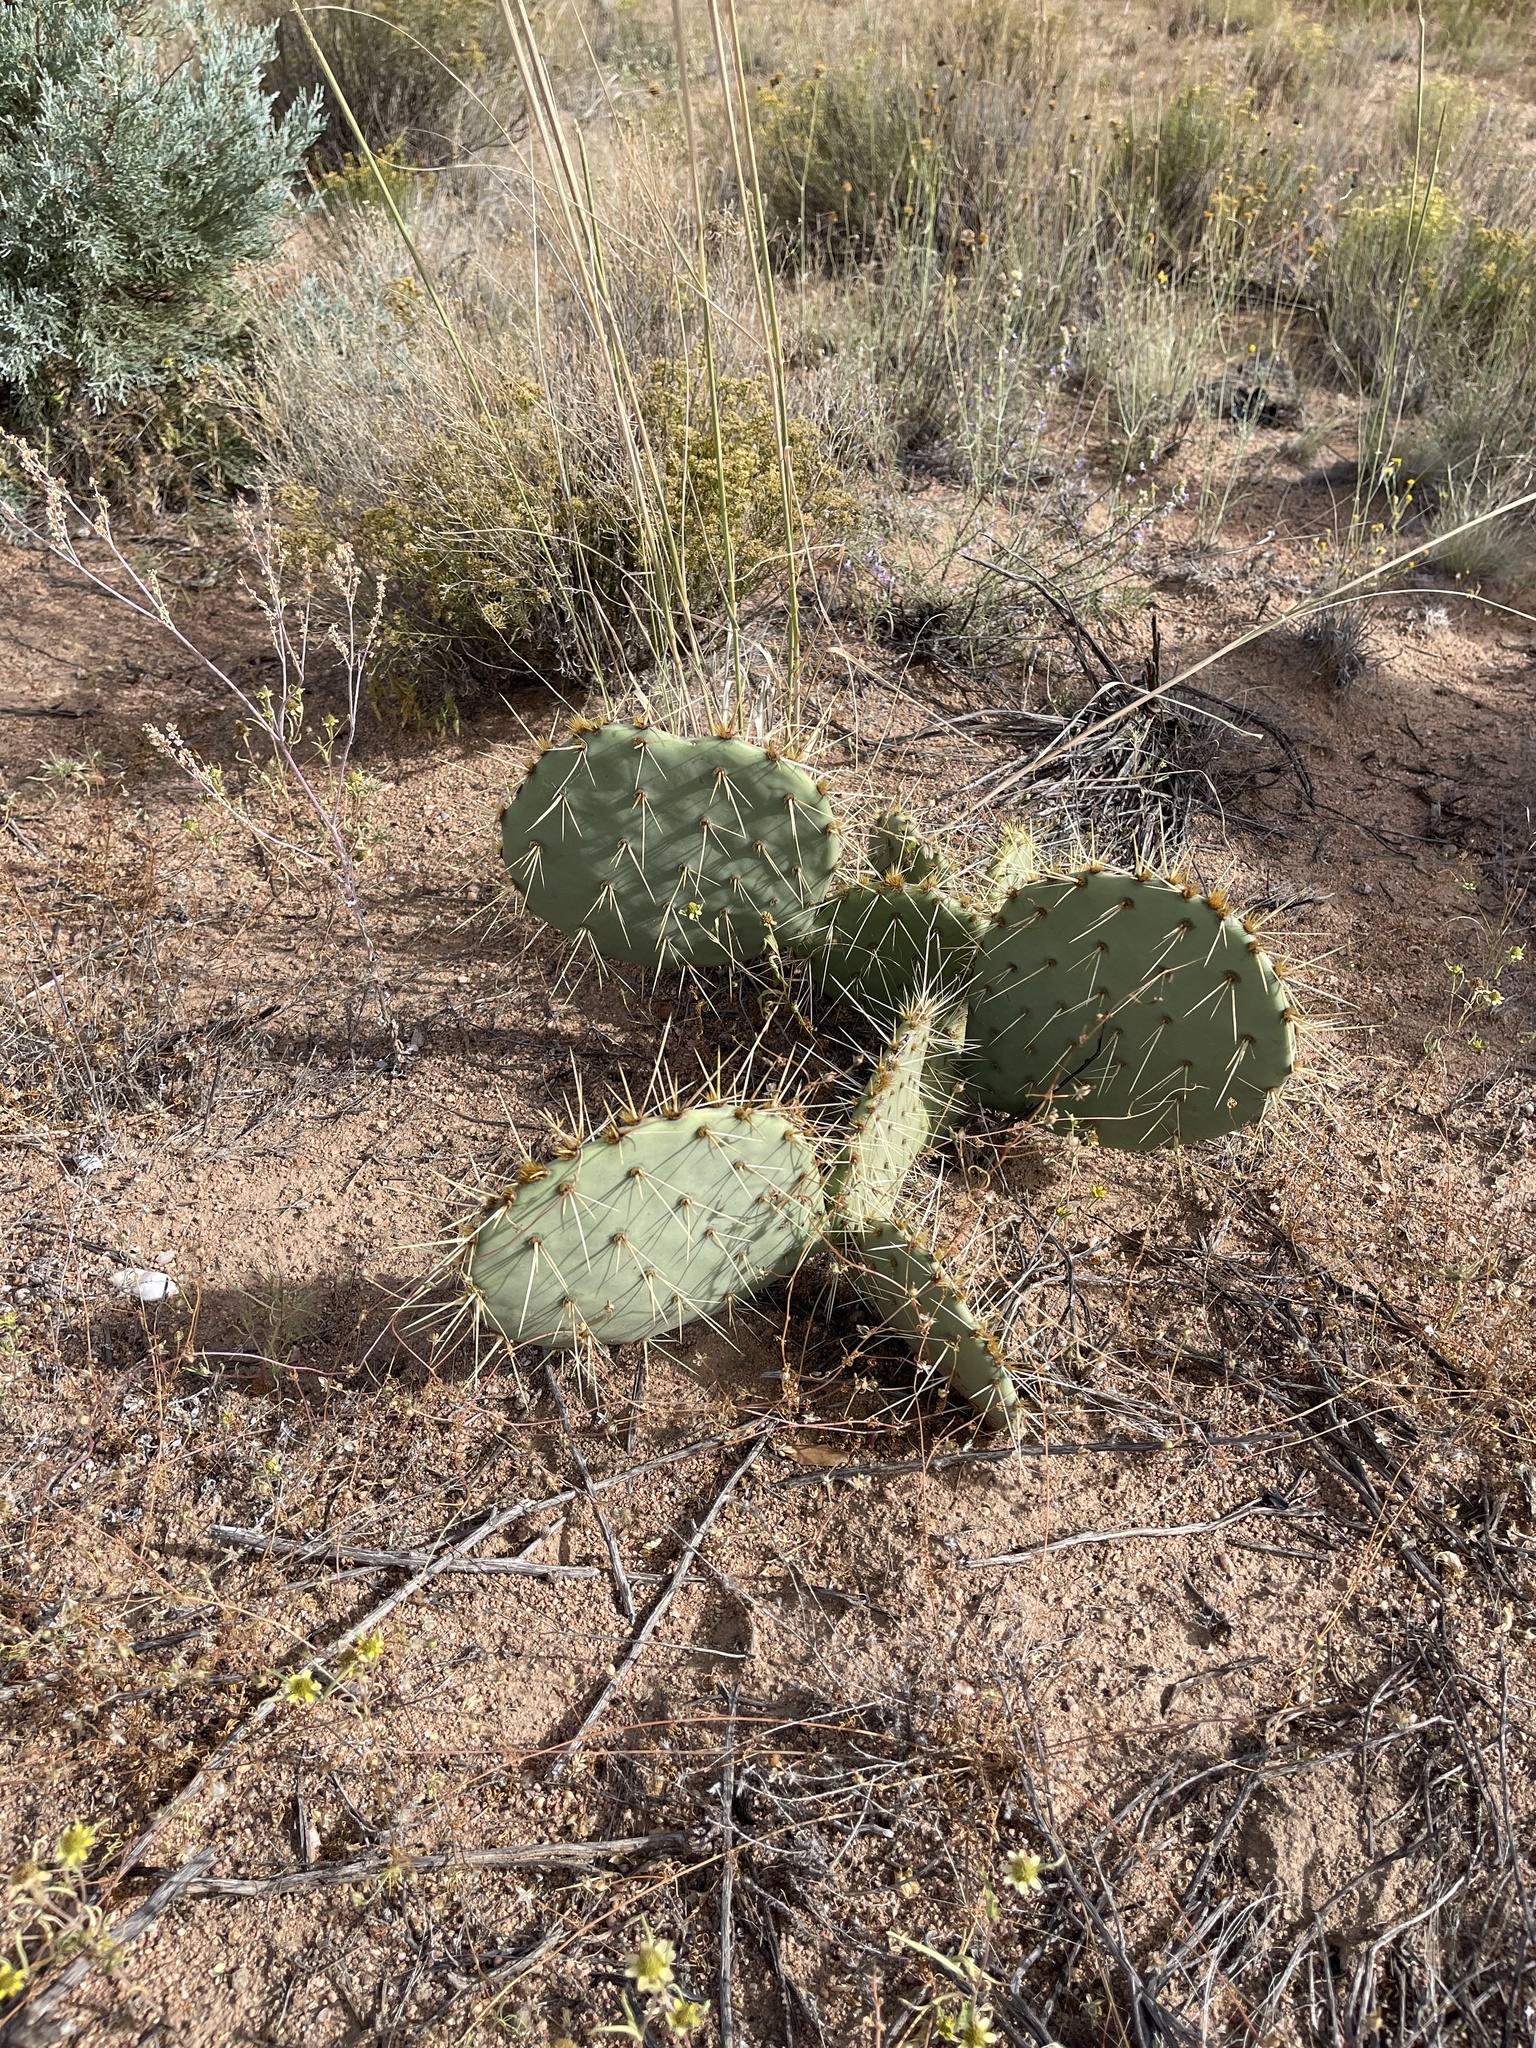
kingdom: Plantae
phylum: Tracheophyta
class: Magnoliopsida
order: Caryophyllales
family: Cactaceae
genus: Opuntia
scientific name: Opuntia phaeacantha
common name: New mexico prickly-pear
